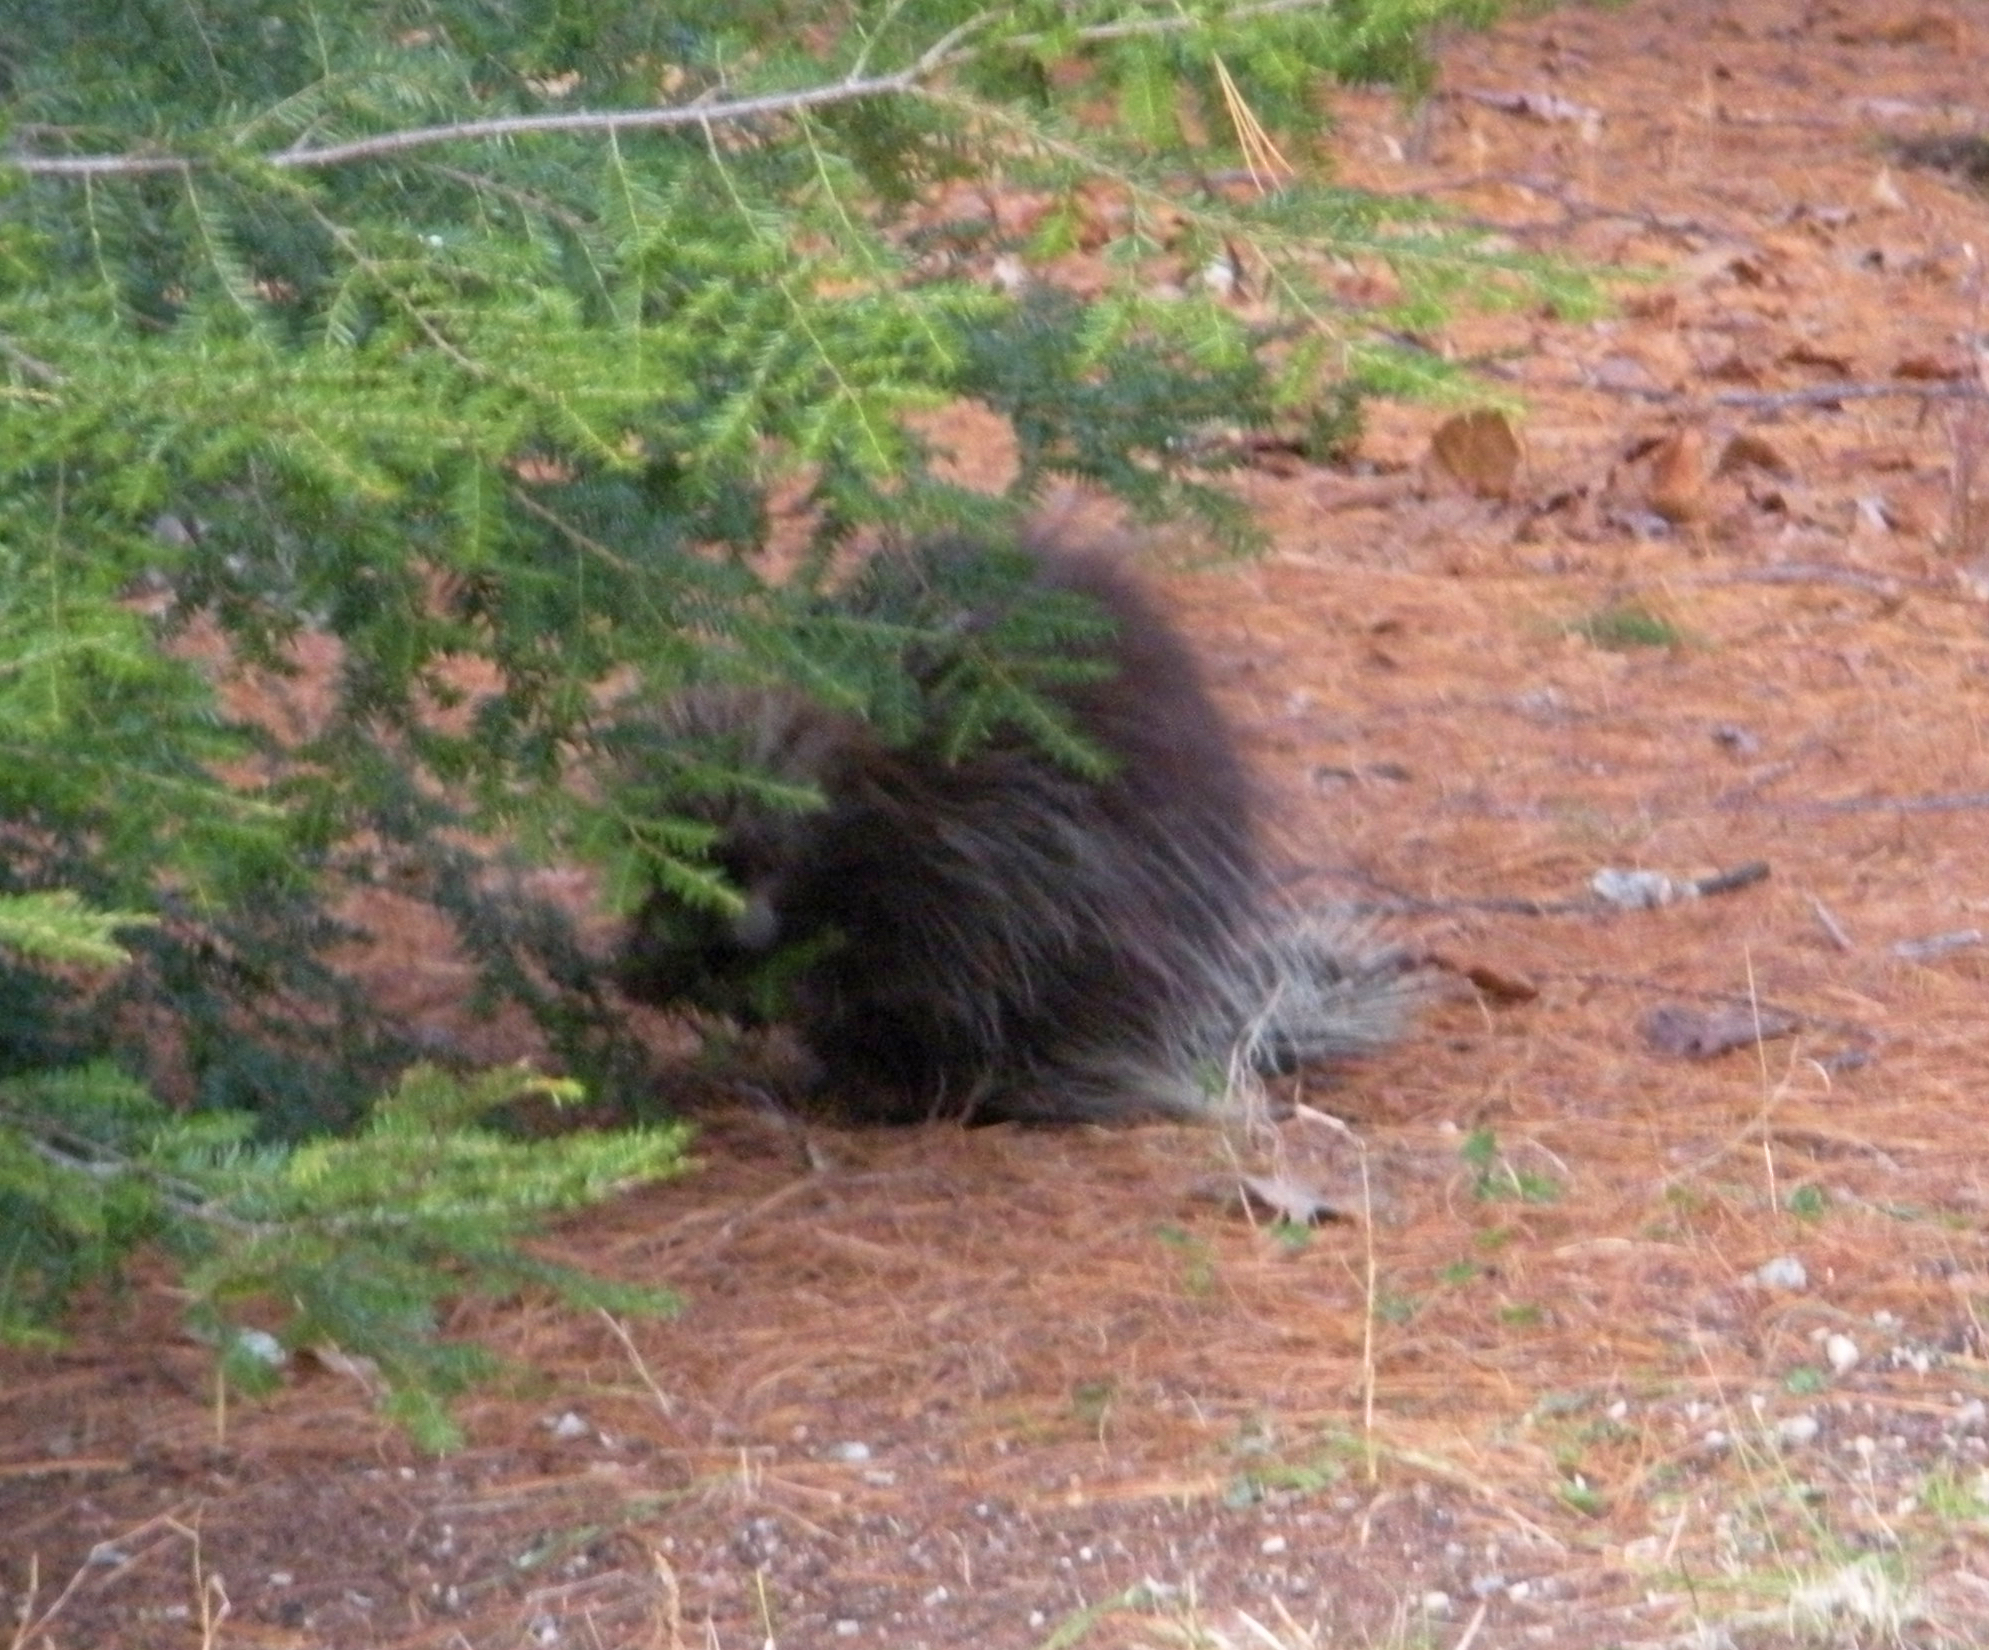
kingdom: Animalia
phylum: Chordata
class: Mammalia
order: Rodentia
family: Erethizontidae
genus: Erethizon
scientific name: Erethizon dorsatus
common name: North american porcupine
